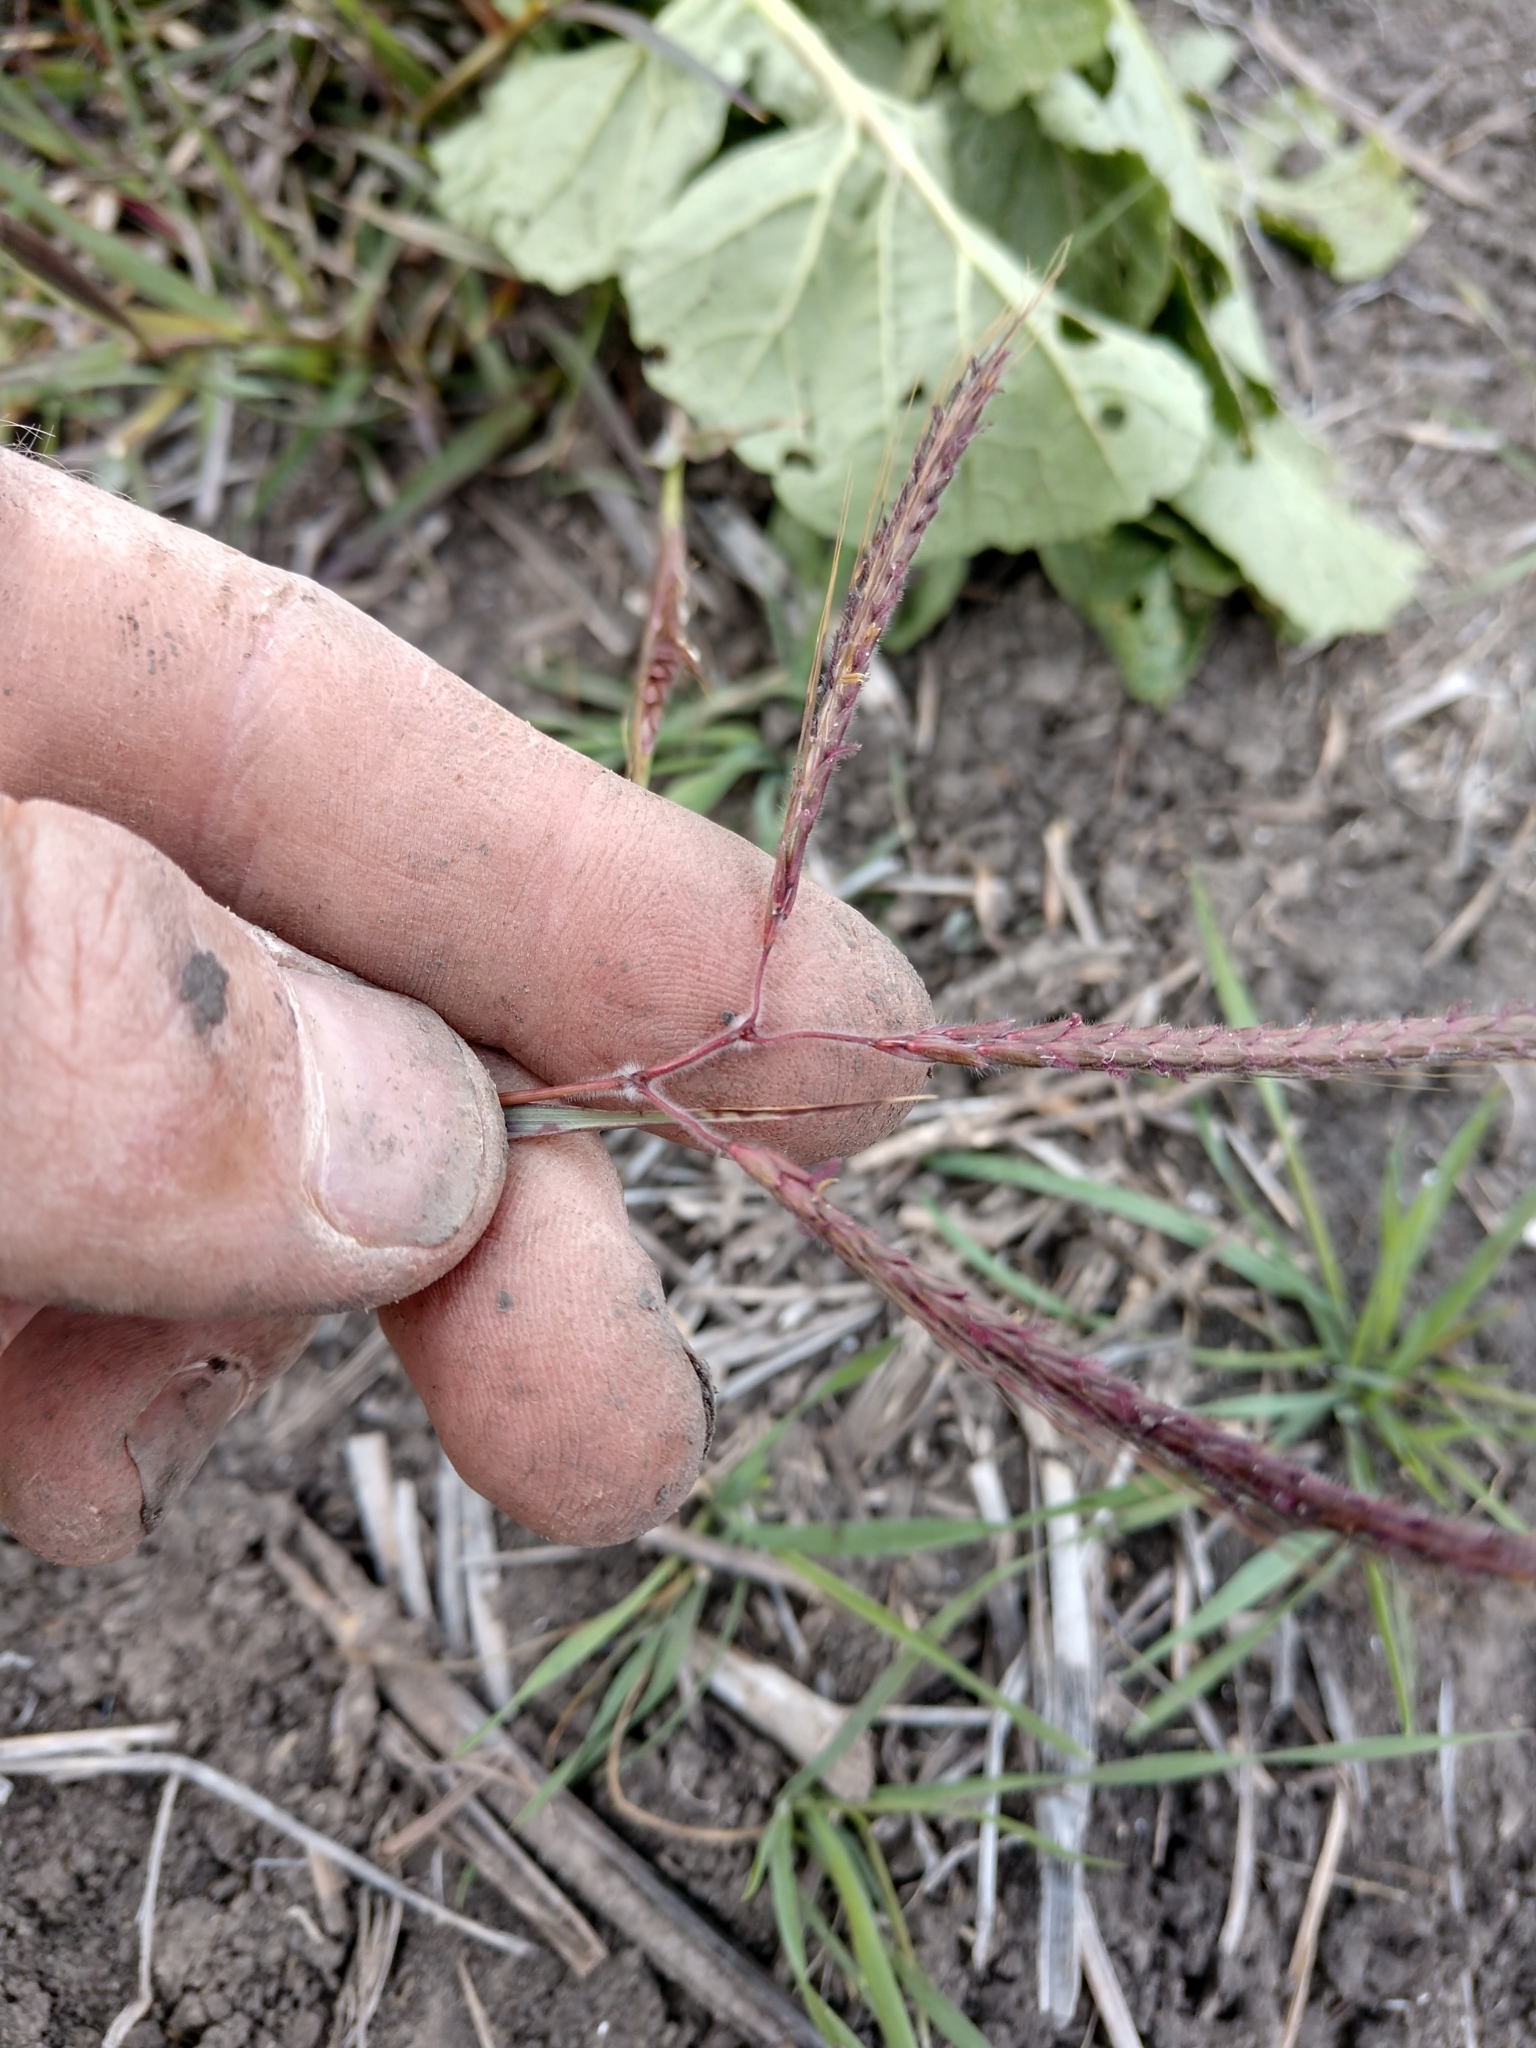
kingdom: Plantae
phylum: Tracheophyta
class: Liliopsida
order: Poales
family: Poaceae
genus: Dichanthium
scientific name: Dichanthium aristatum
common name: Angleton bluestem
